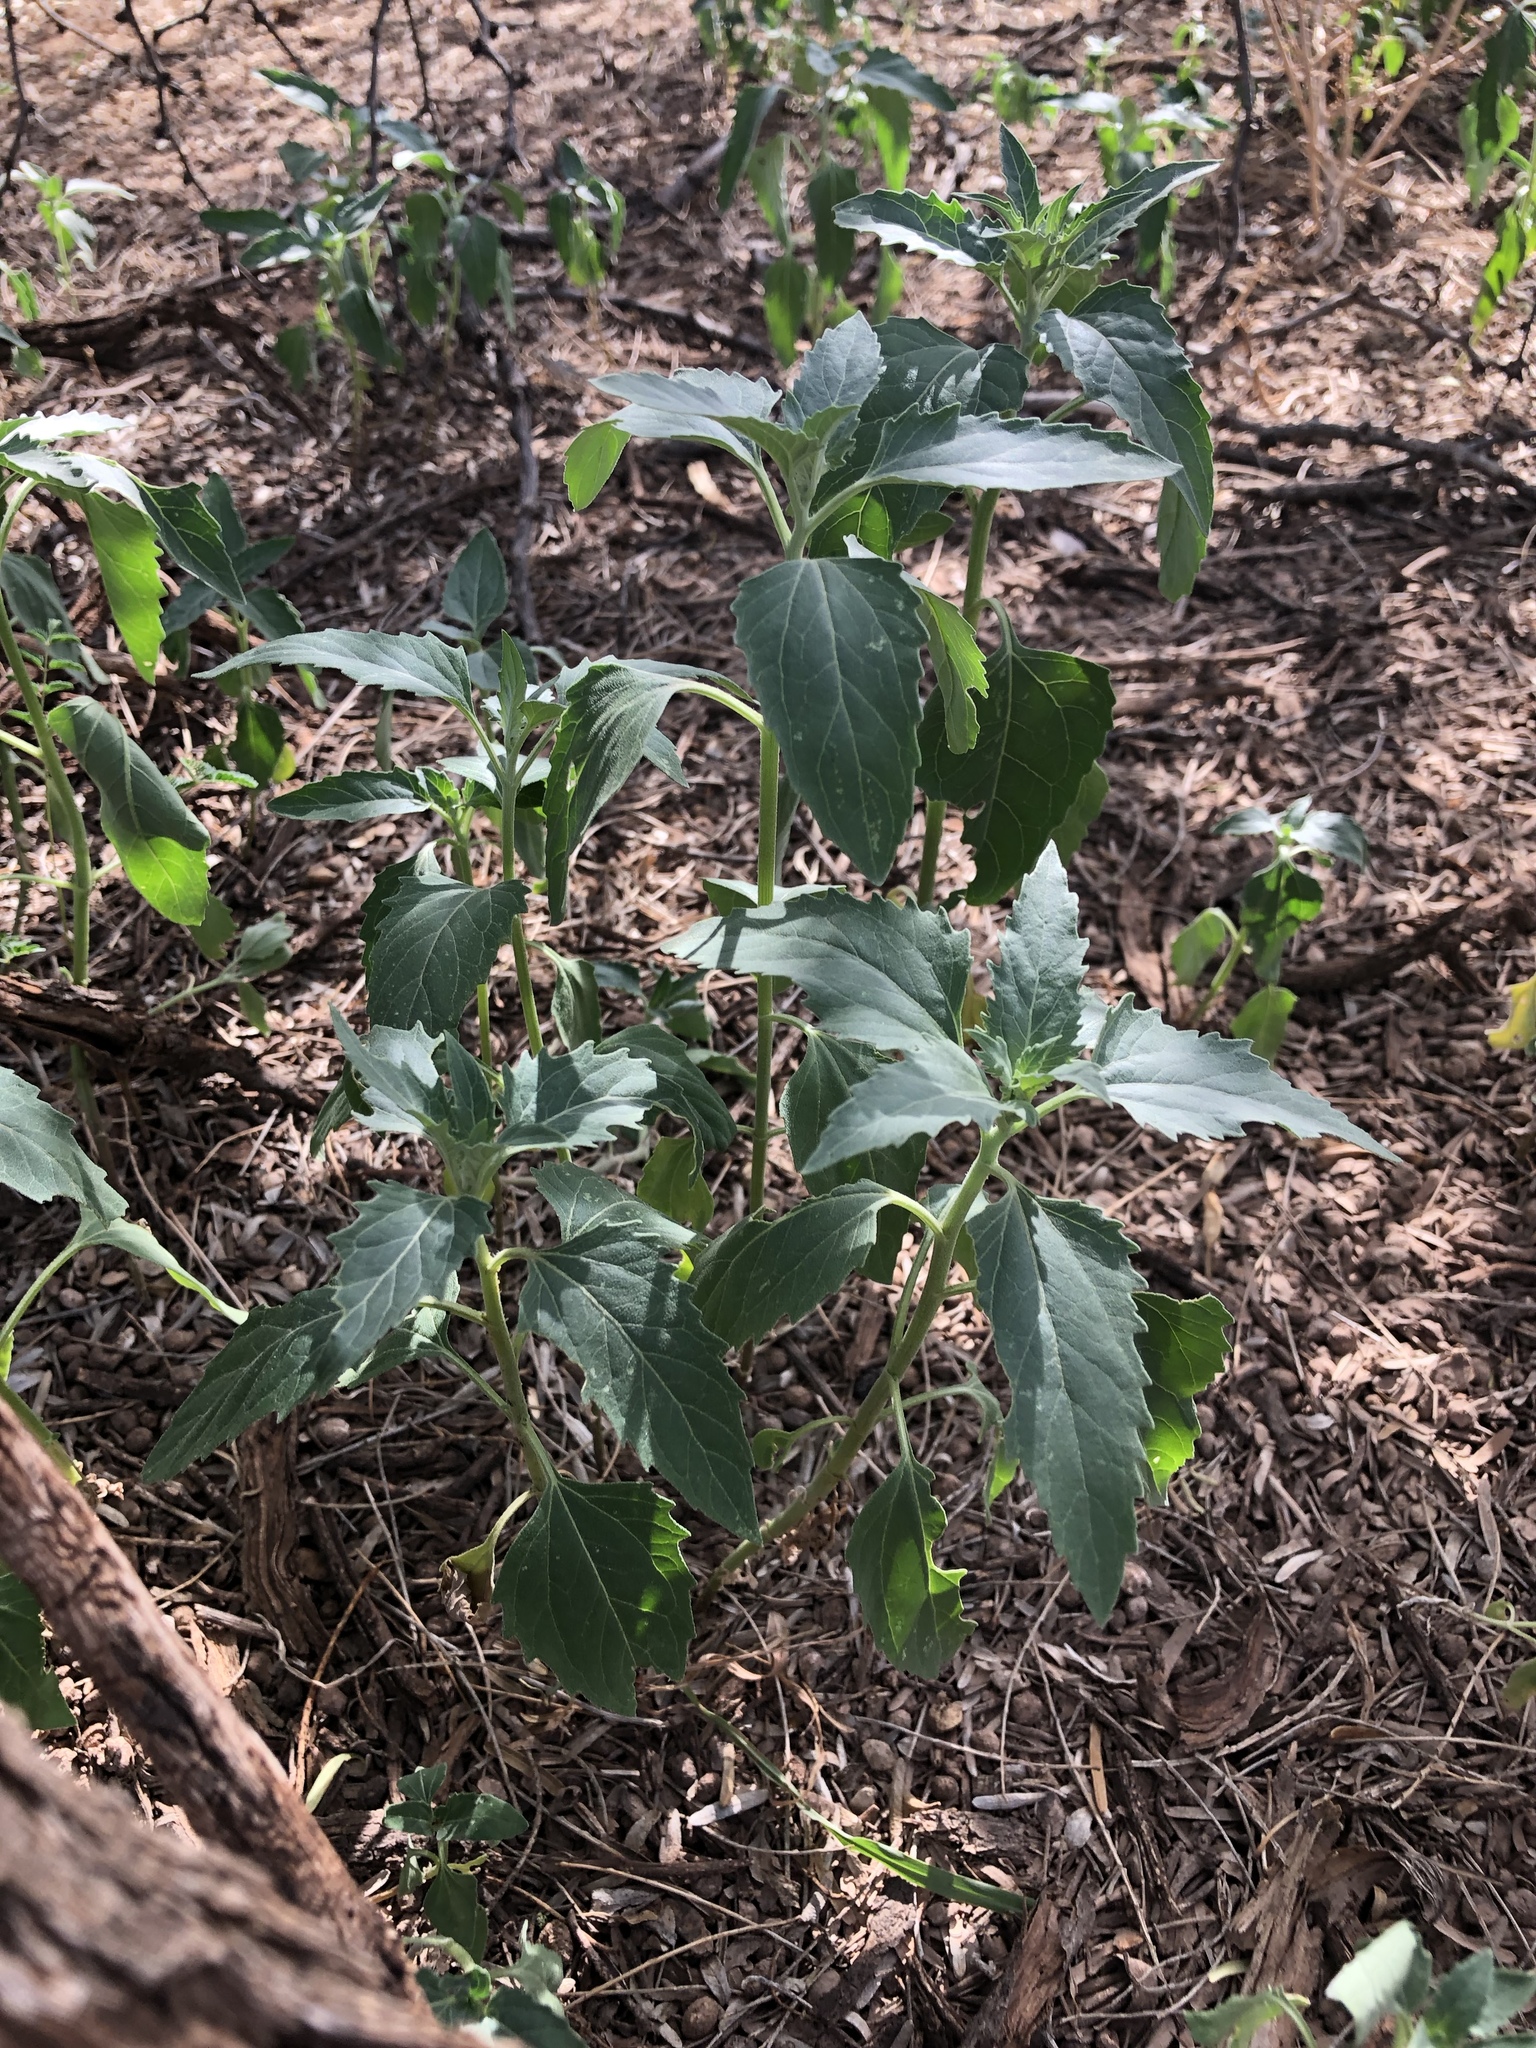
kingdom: Plantae
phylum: Tracheophyta
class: Magnoliopsida
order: Asterales
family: Asteraceae
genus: Verbesina
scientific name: Verbesina encelioides
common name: Golden crownbeard
